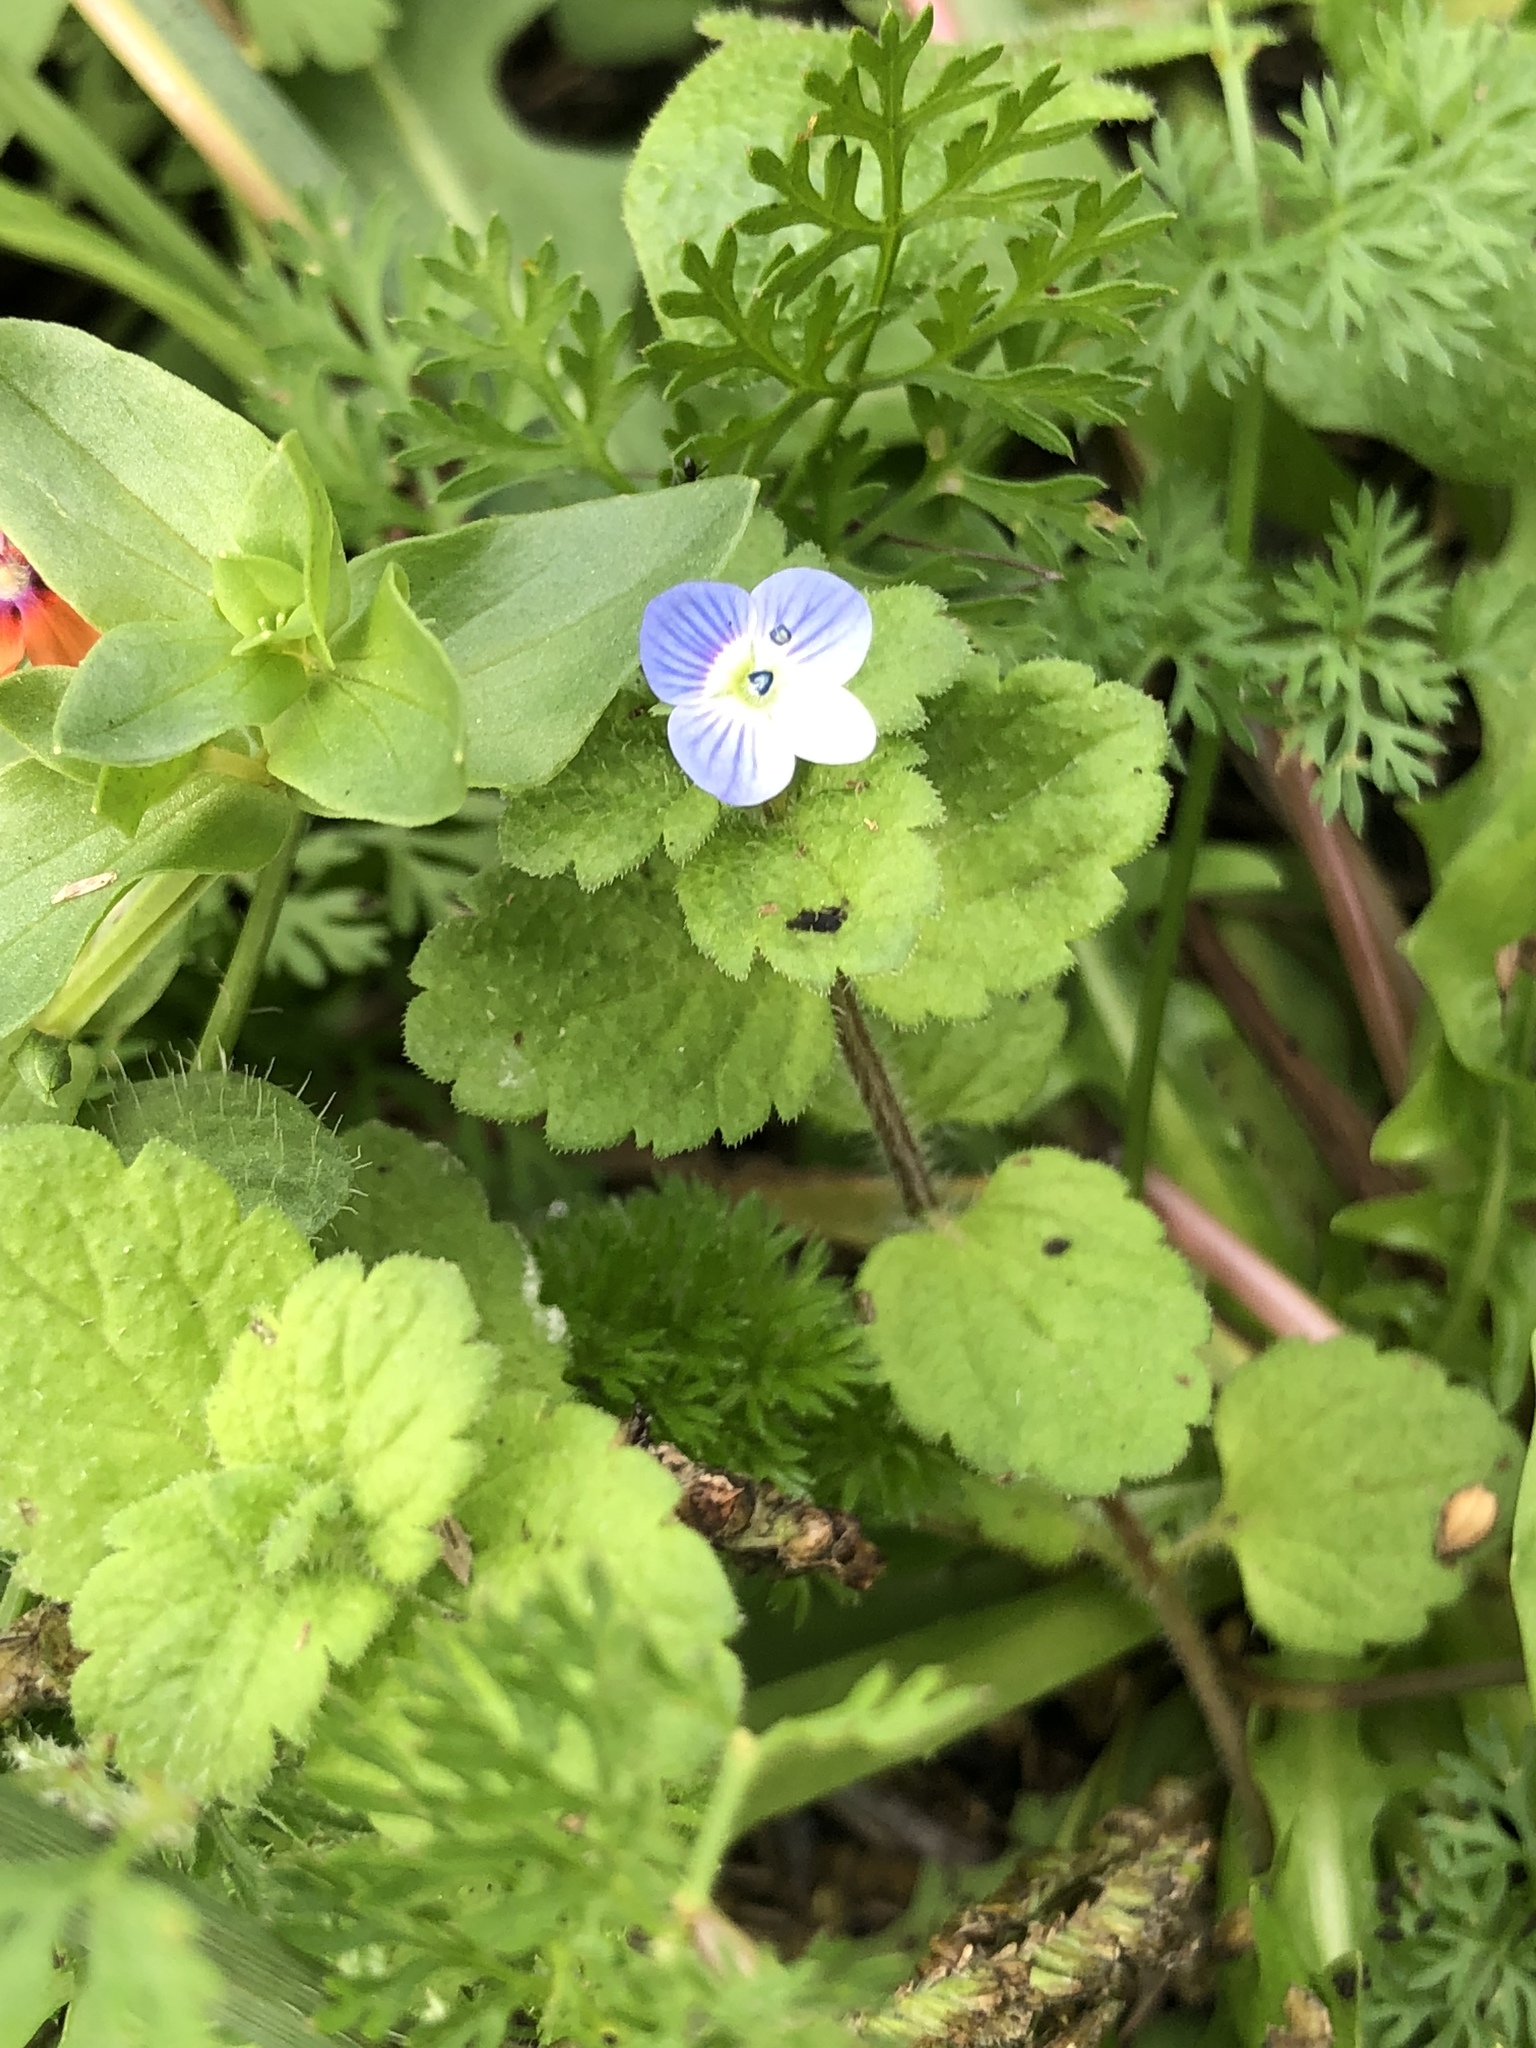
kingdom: Plantae
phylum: Tracheophyta
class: Magnoliopsida
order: Lamiales
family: Plantaginaceae
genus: Veronica
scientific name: Veronica persica
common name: Common field-speedwell
